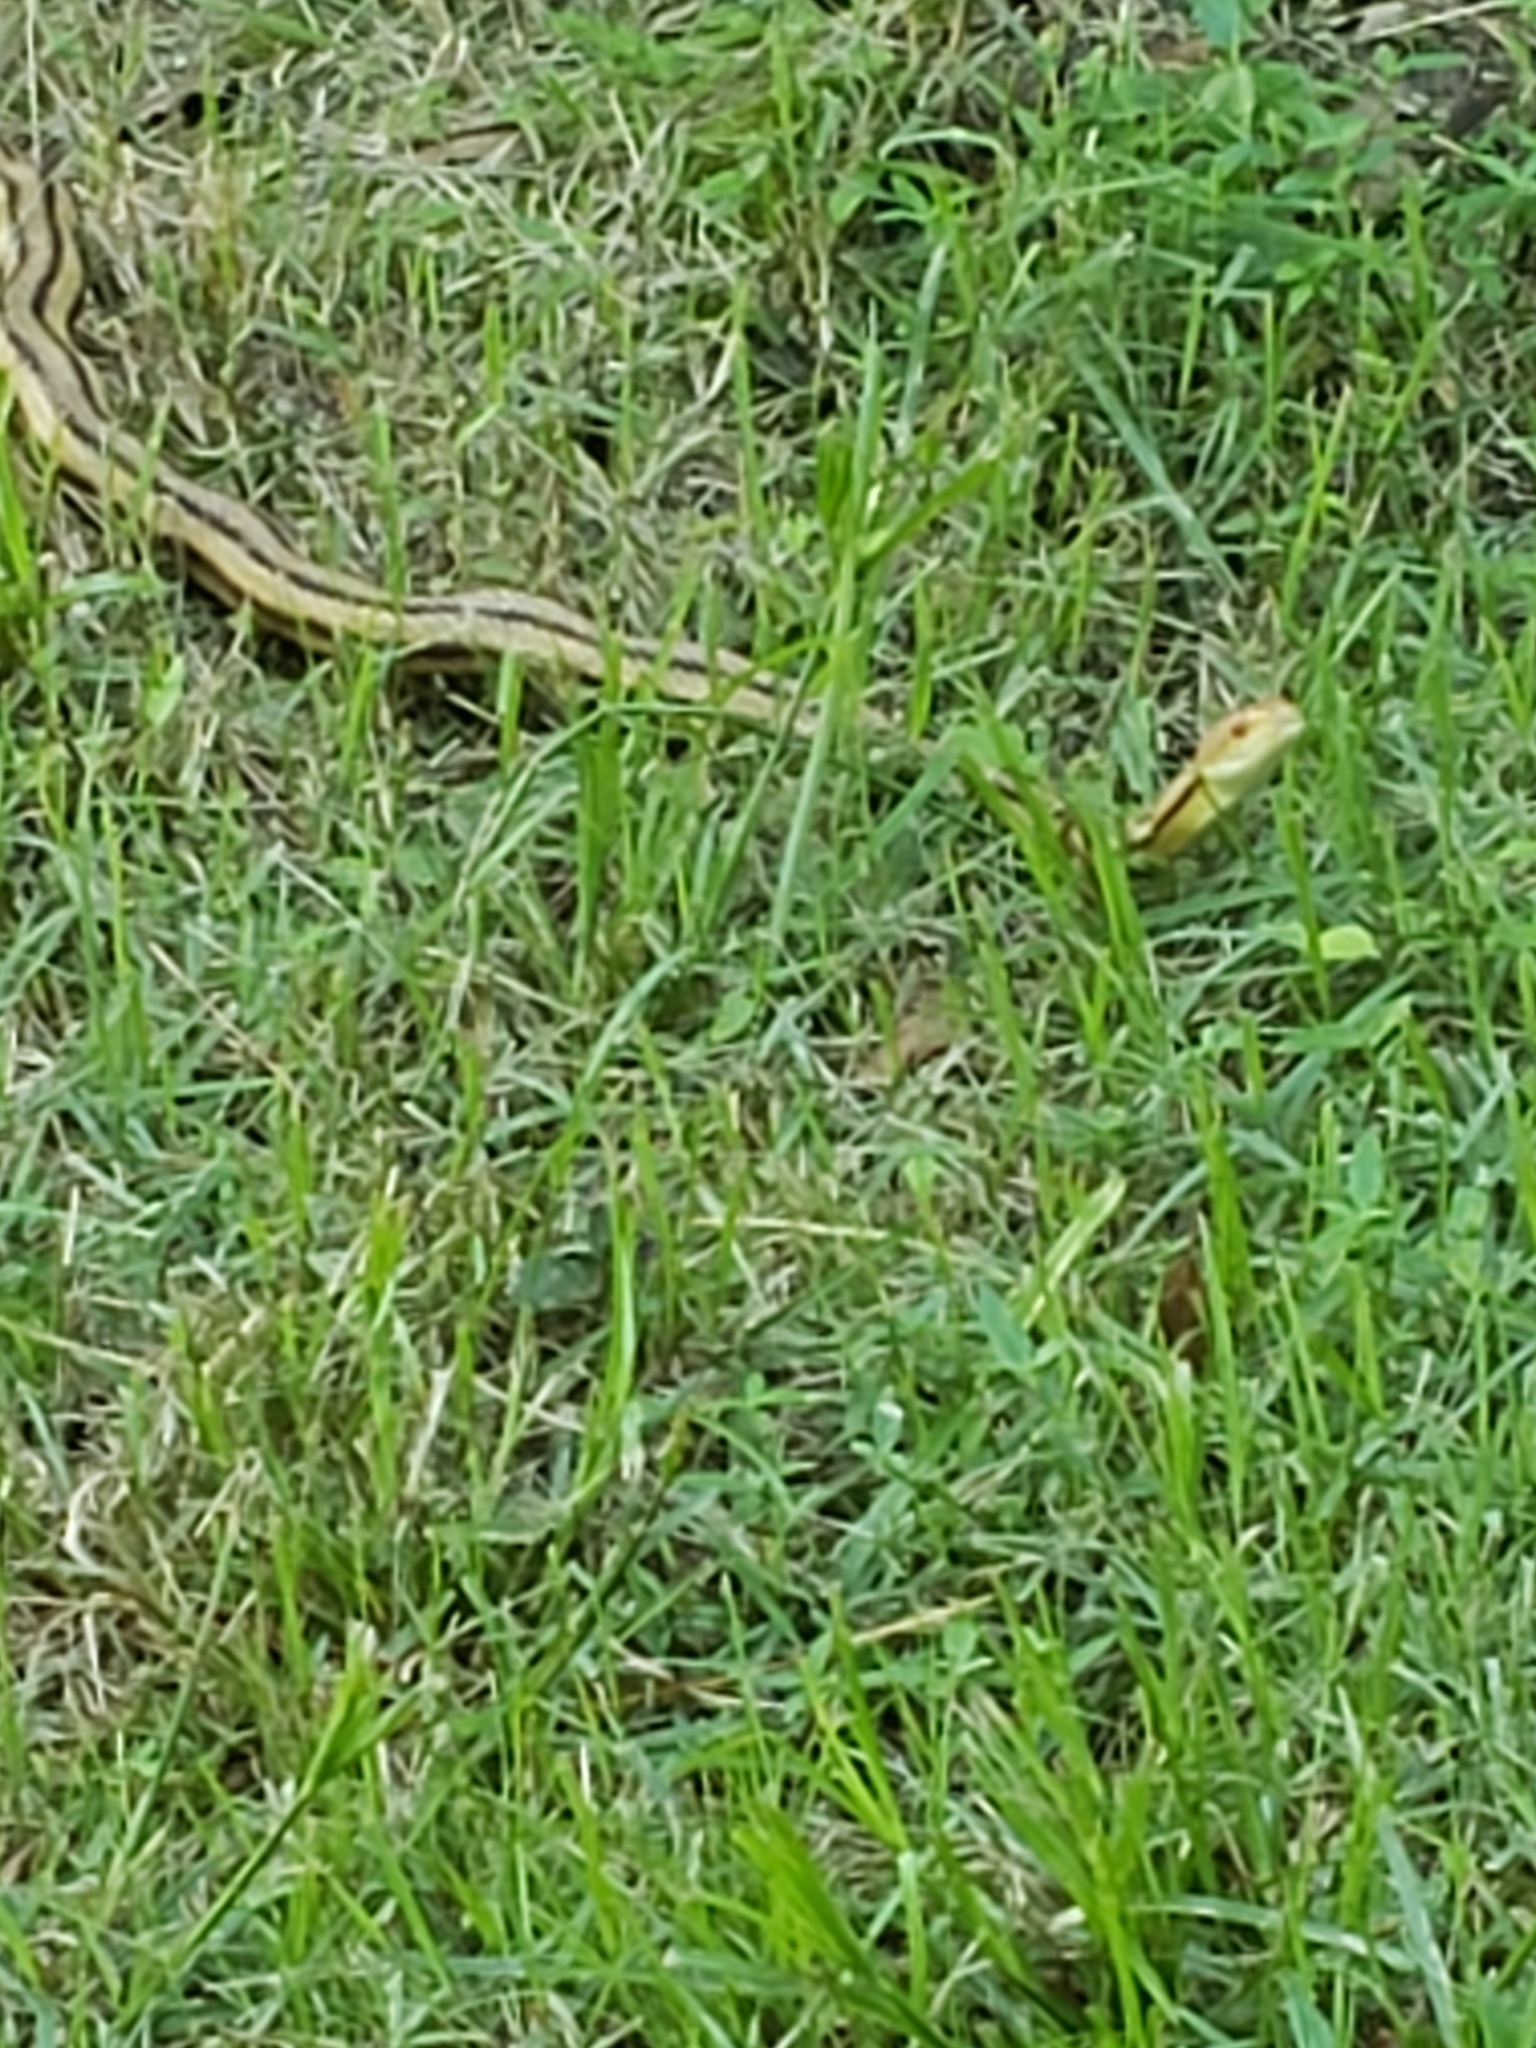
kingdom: Animalia
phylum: Chordata
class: Squamata
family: Colubridae
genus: Pantherophis
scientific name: Pantherophis alleghaniensis
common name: Eastern rat snake
